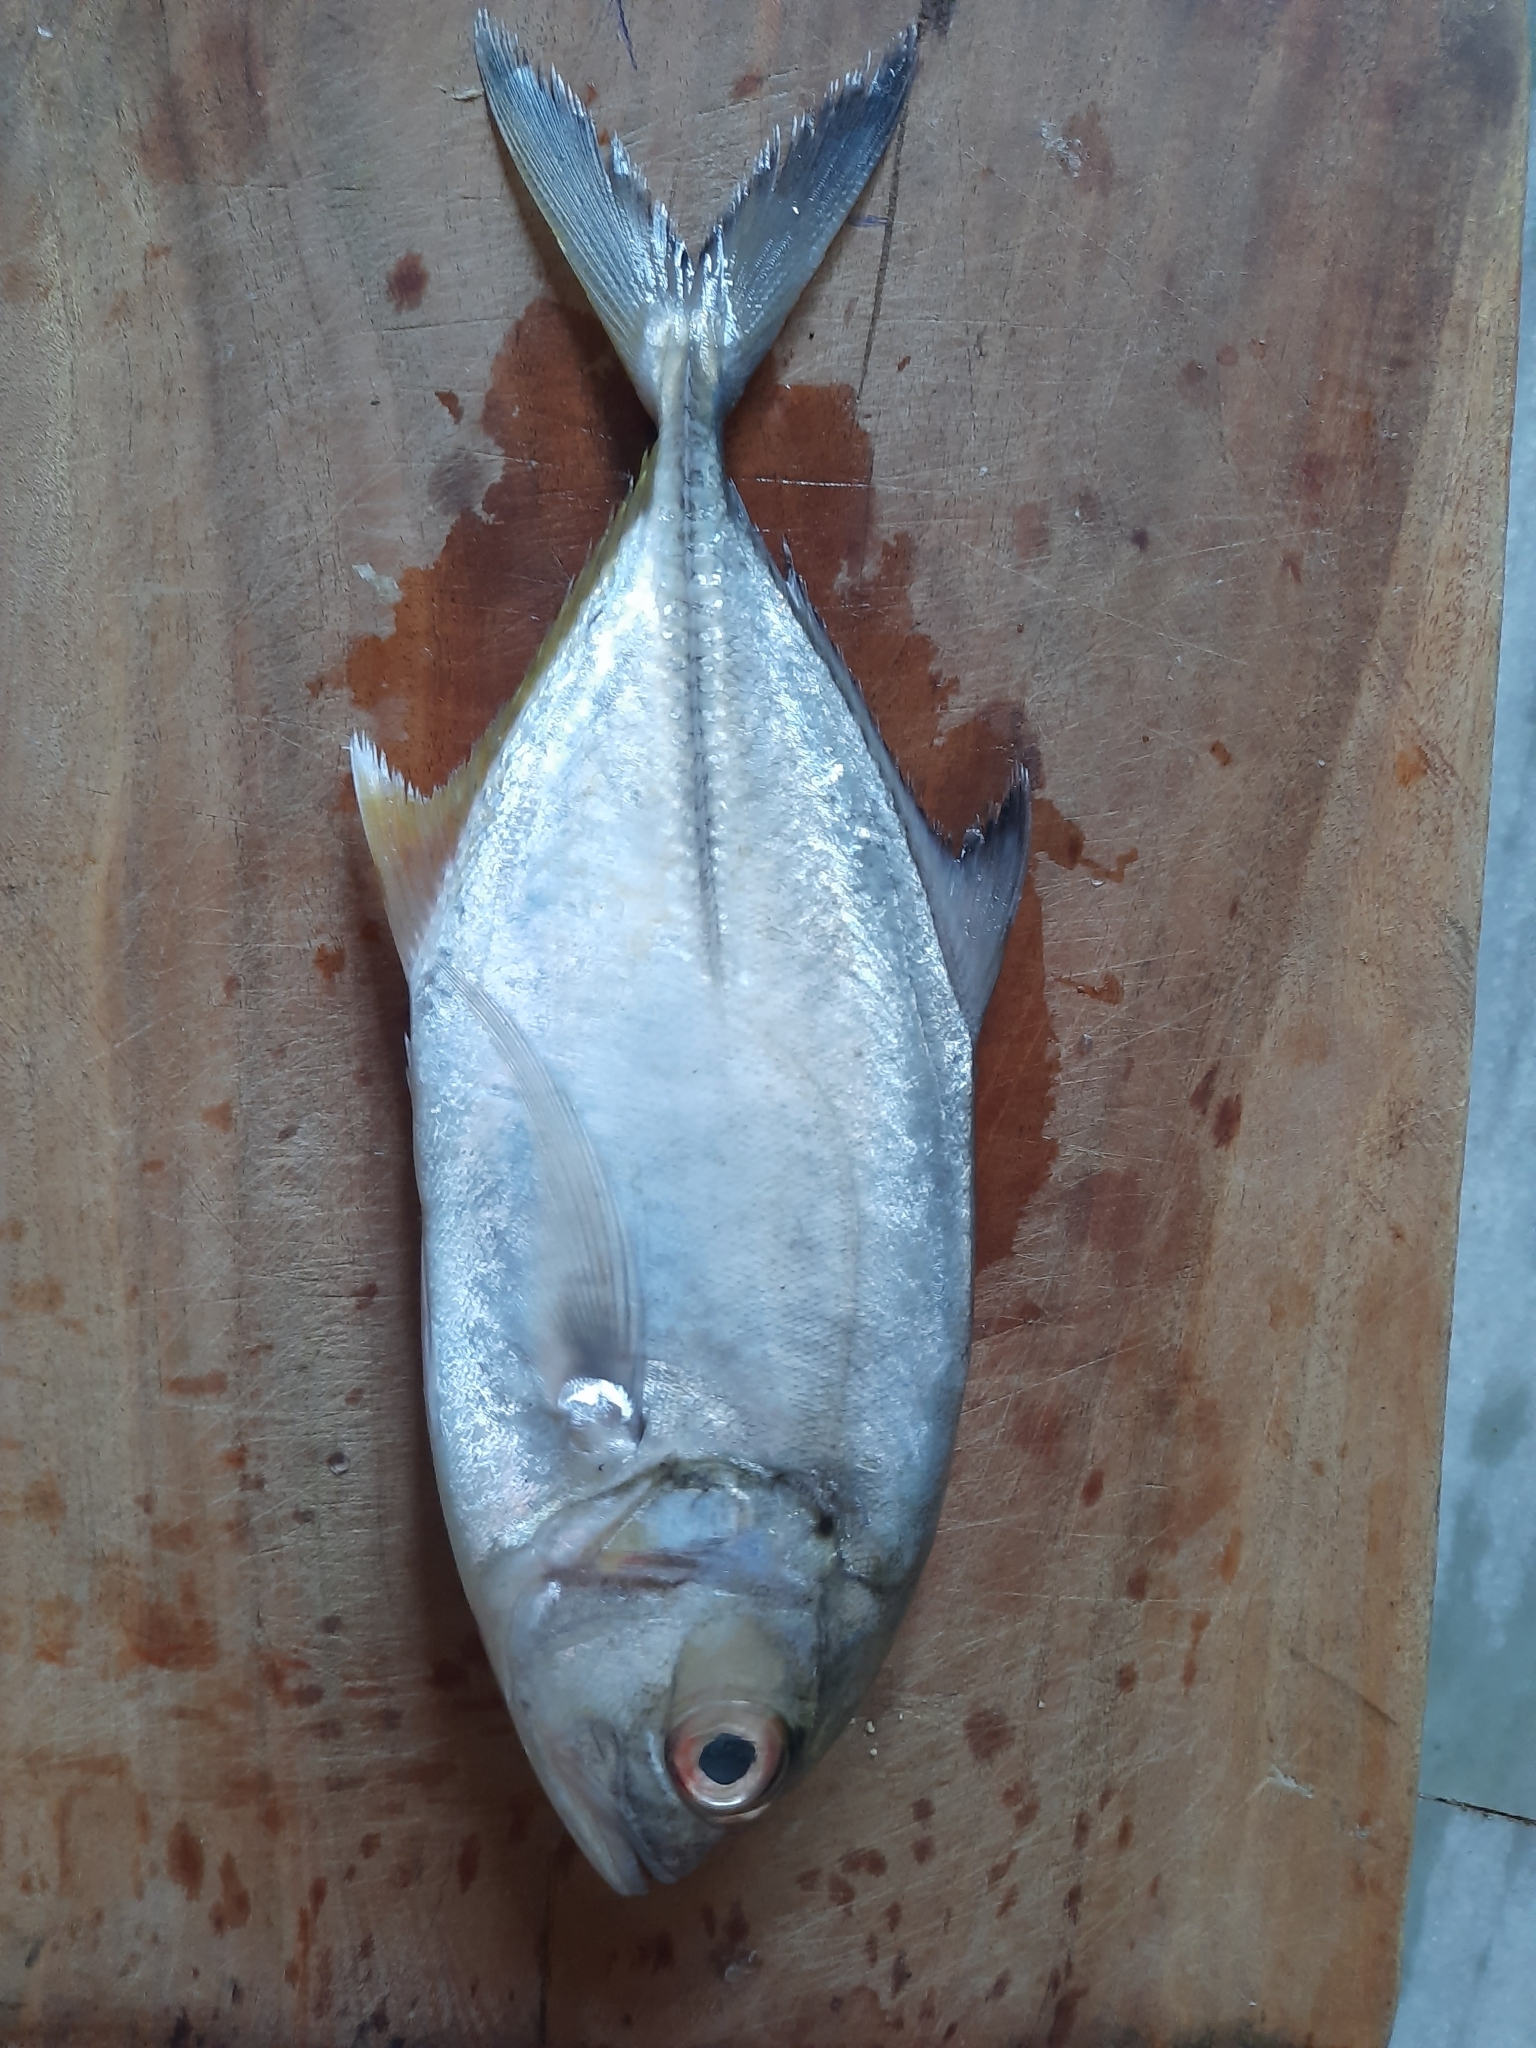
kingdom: Animalia
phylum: Chordata
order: Perciformes
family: Carangidae
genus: Caranx
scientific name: Caranx sexfasciatus
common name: Bigeye trevally
